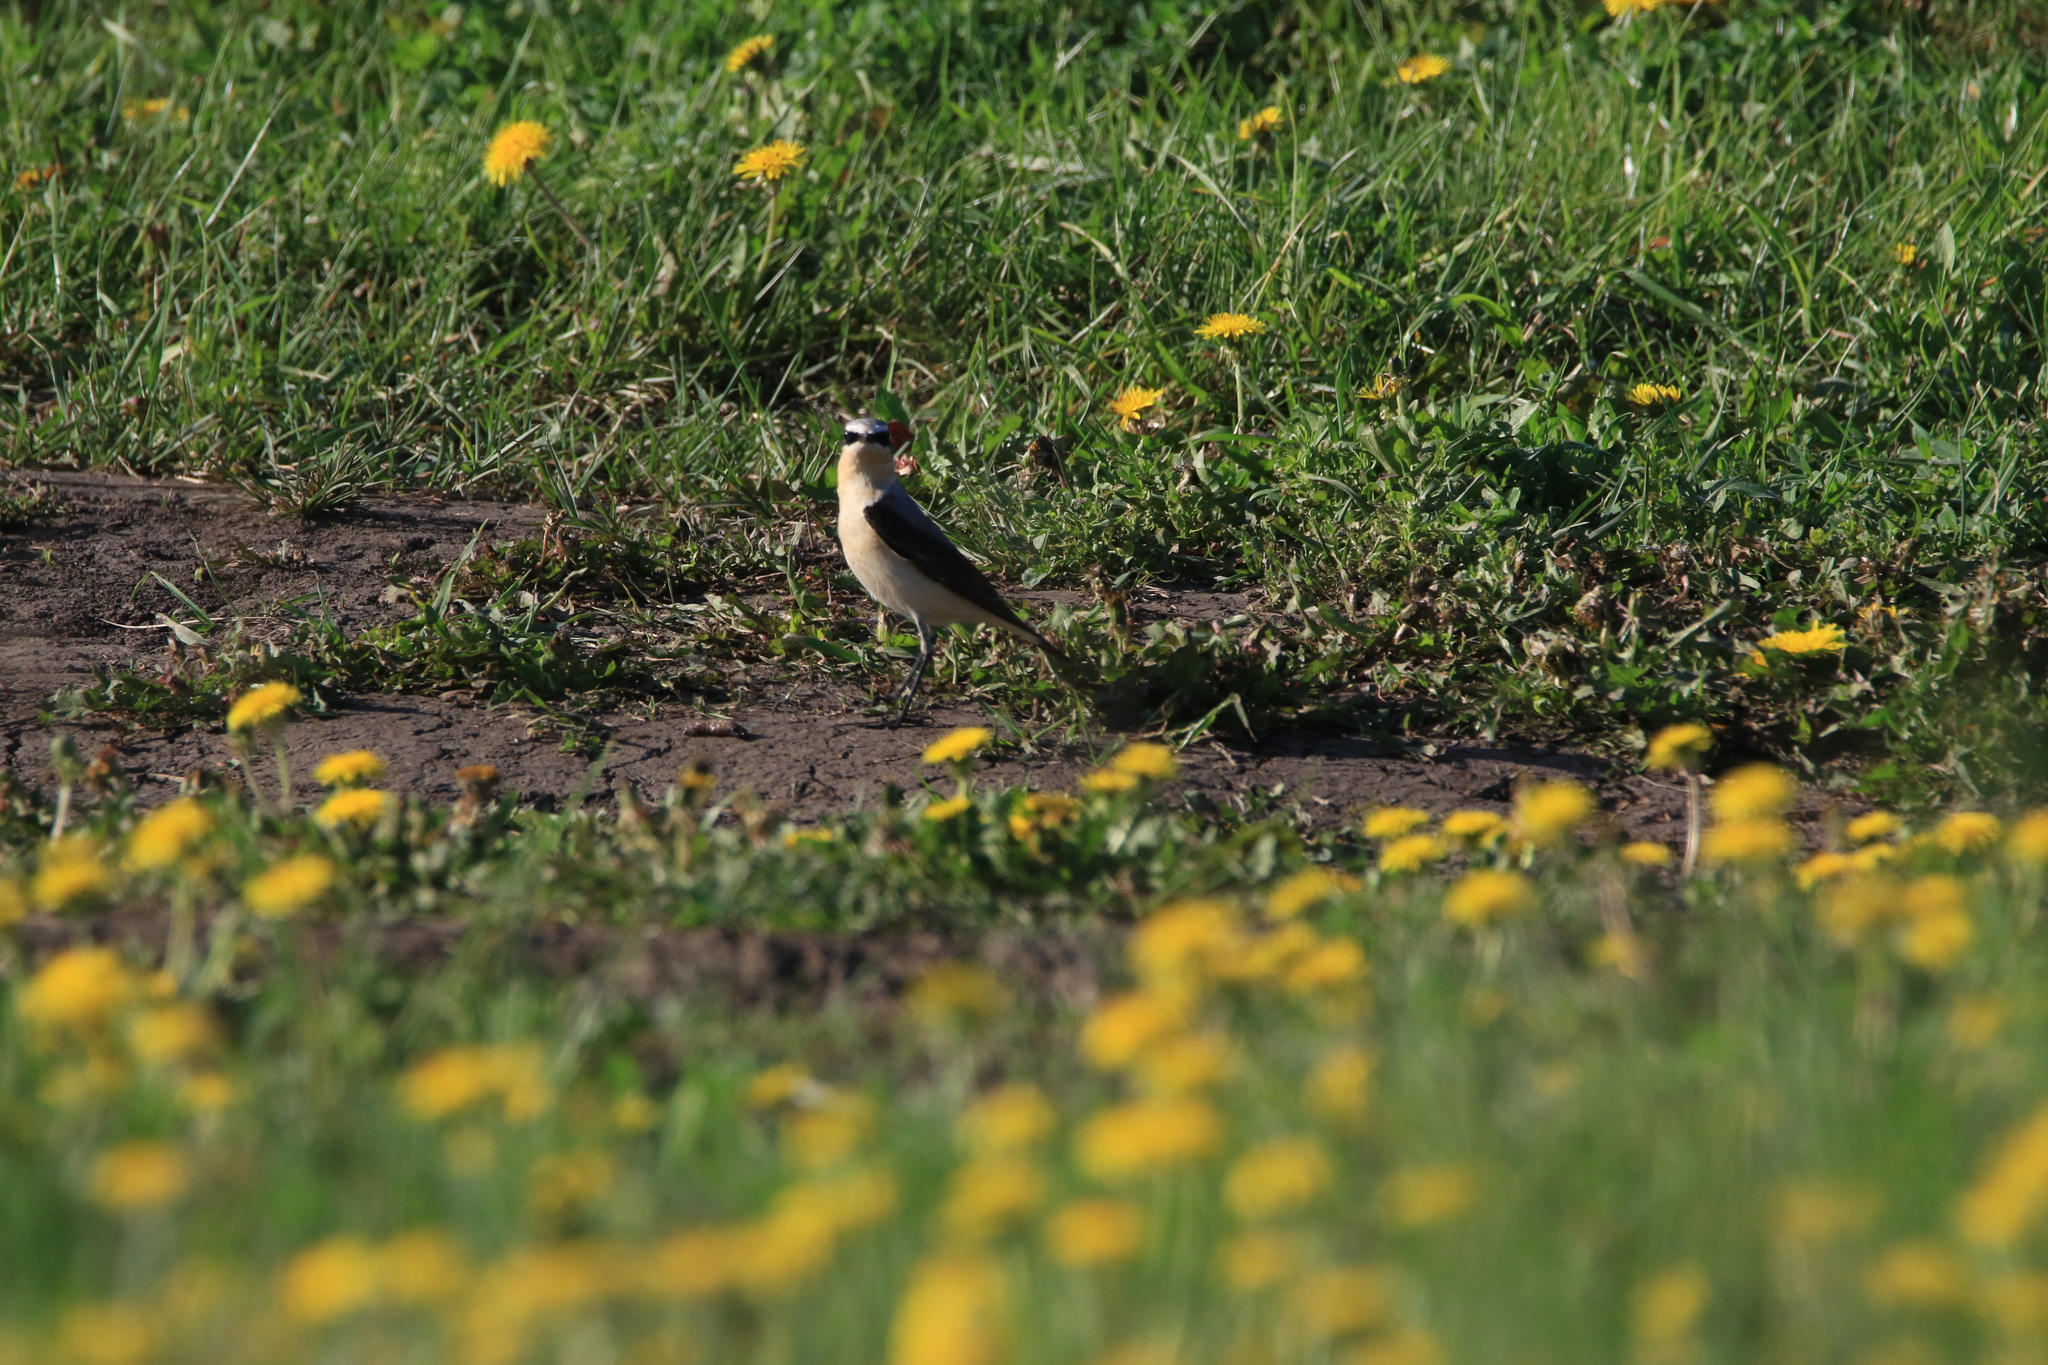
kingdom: Animalia
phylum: Chordata
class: Aves
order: Passeriformes
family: Muscicapidae
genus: Oenanthe
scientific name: Oenanthe oenanthe
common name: Northern wheatear
